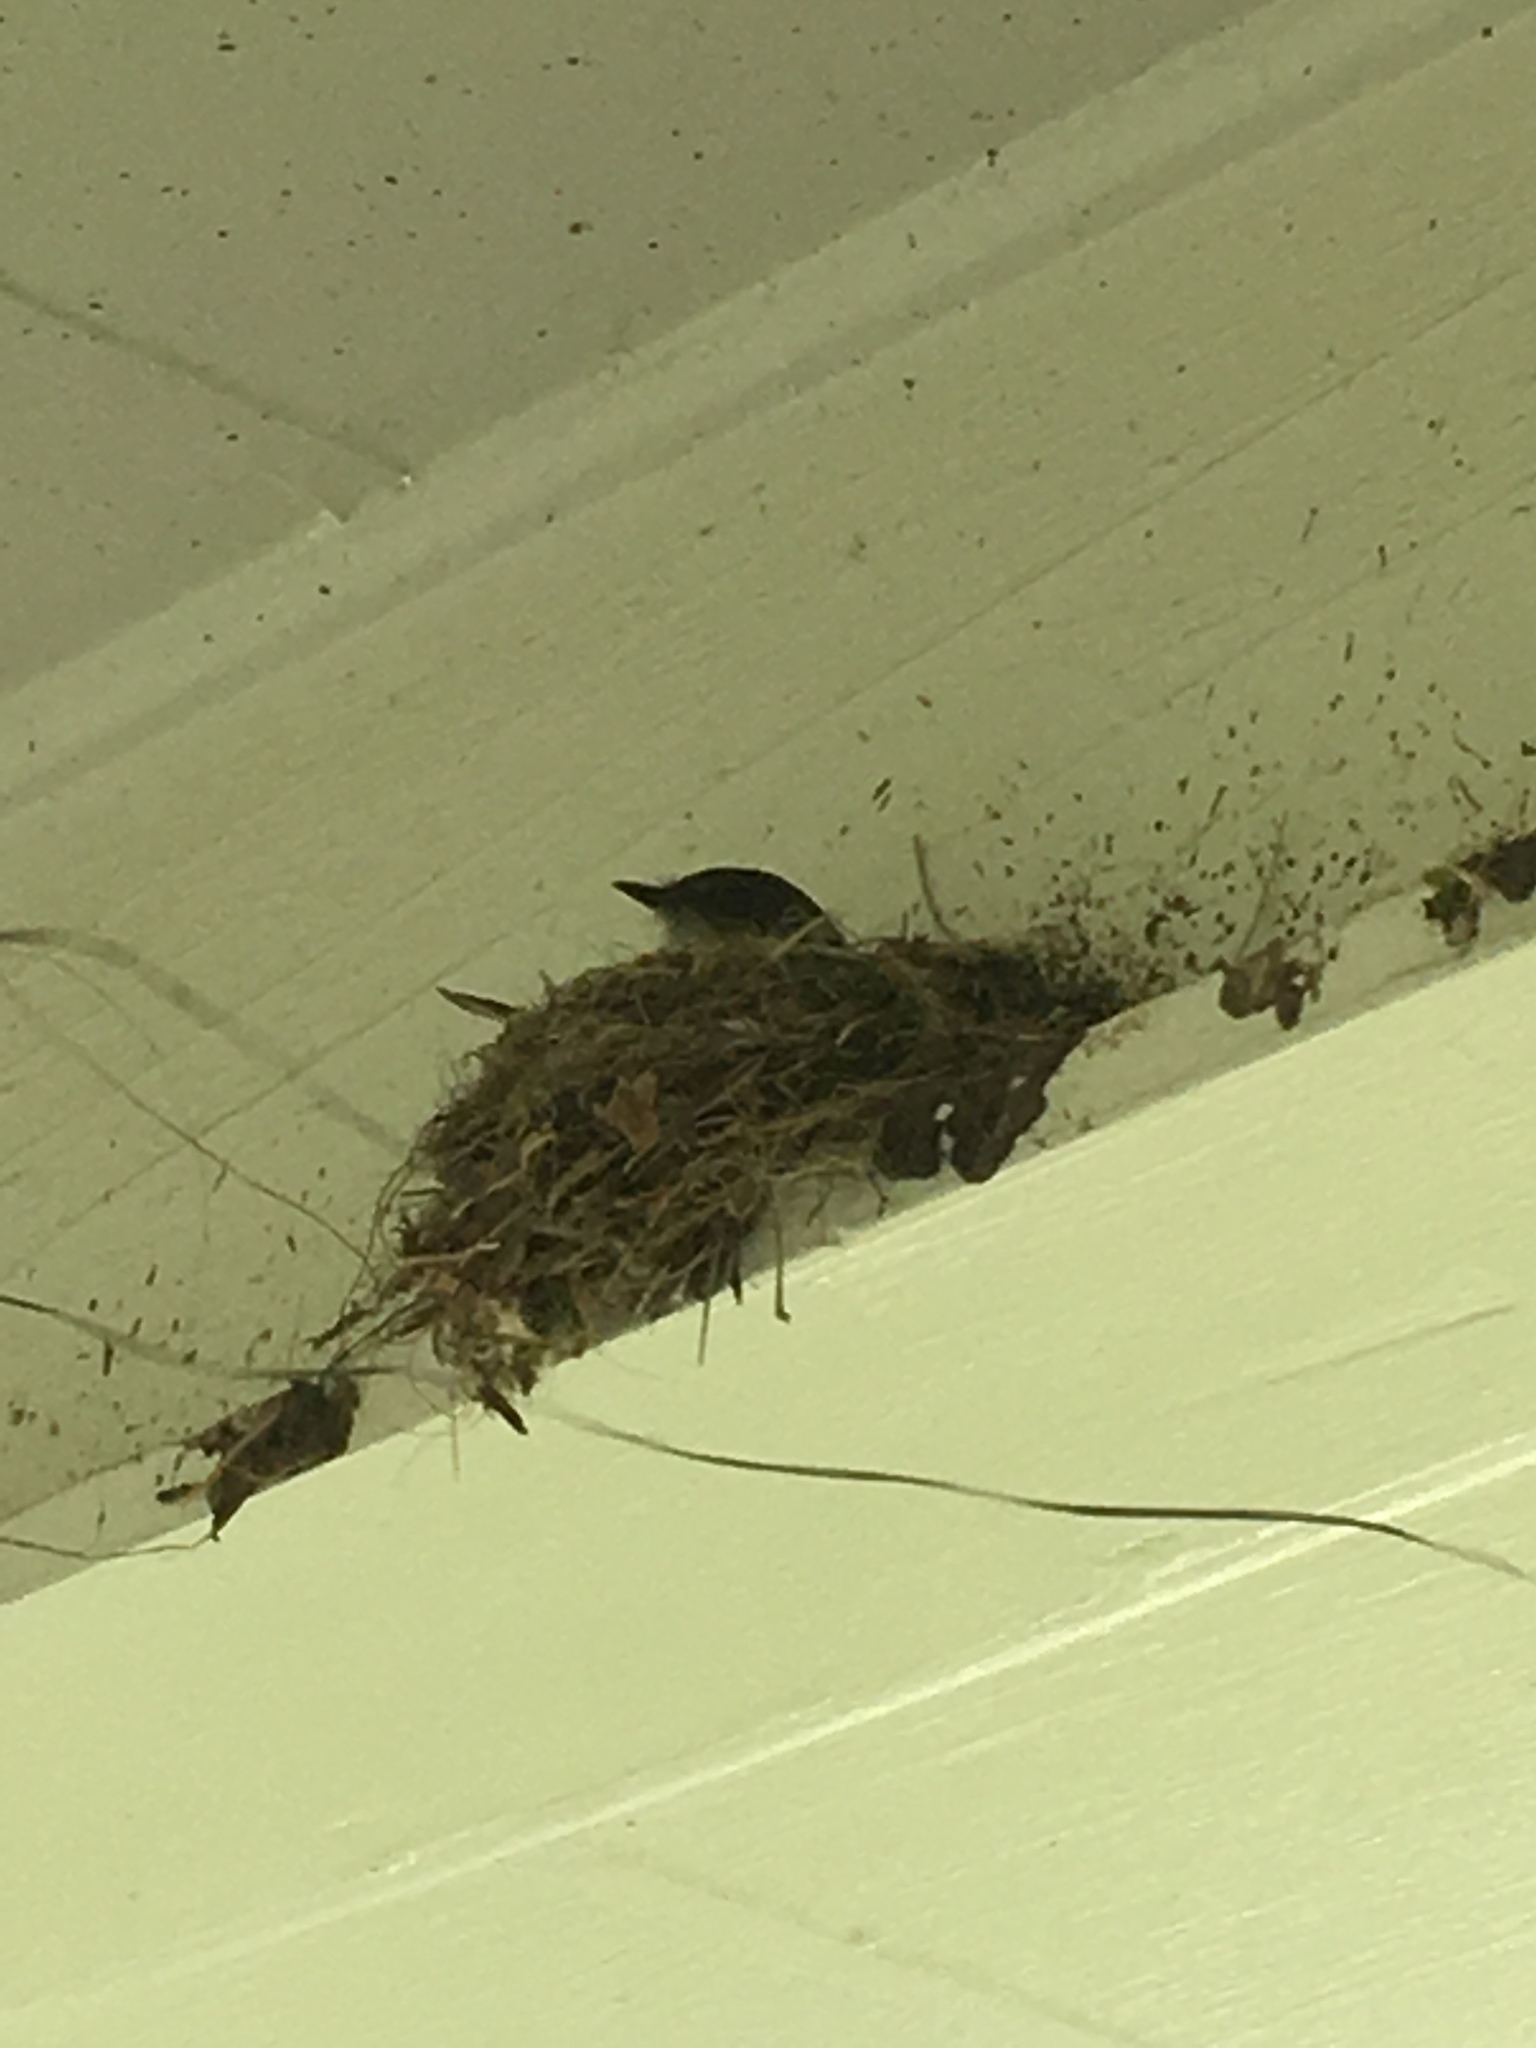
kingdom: Animalia
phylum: Chordata
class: Aves
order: Passeriformes
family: Tyrannidae
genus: Sayornis
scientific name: Sayornis phoebe
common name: Eastern phoebe
